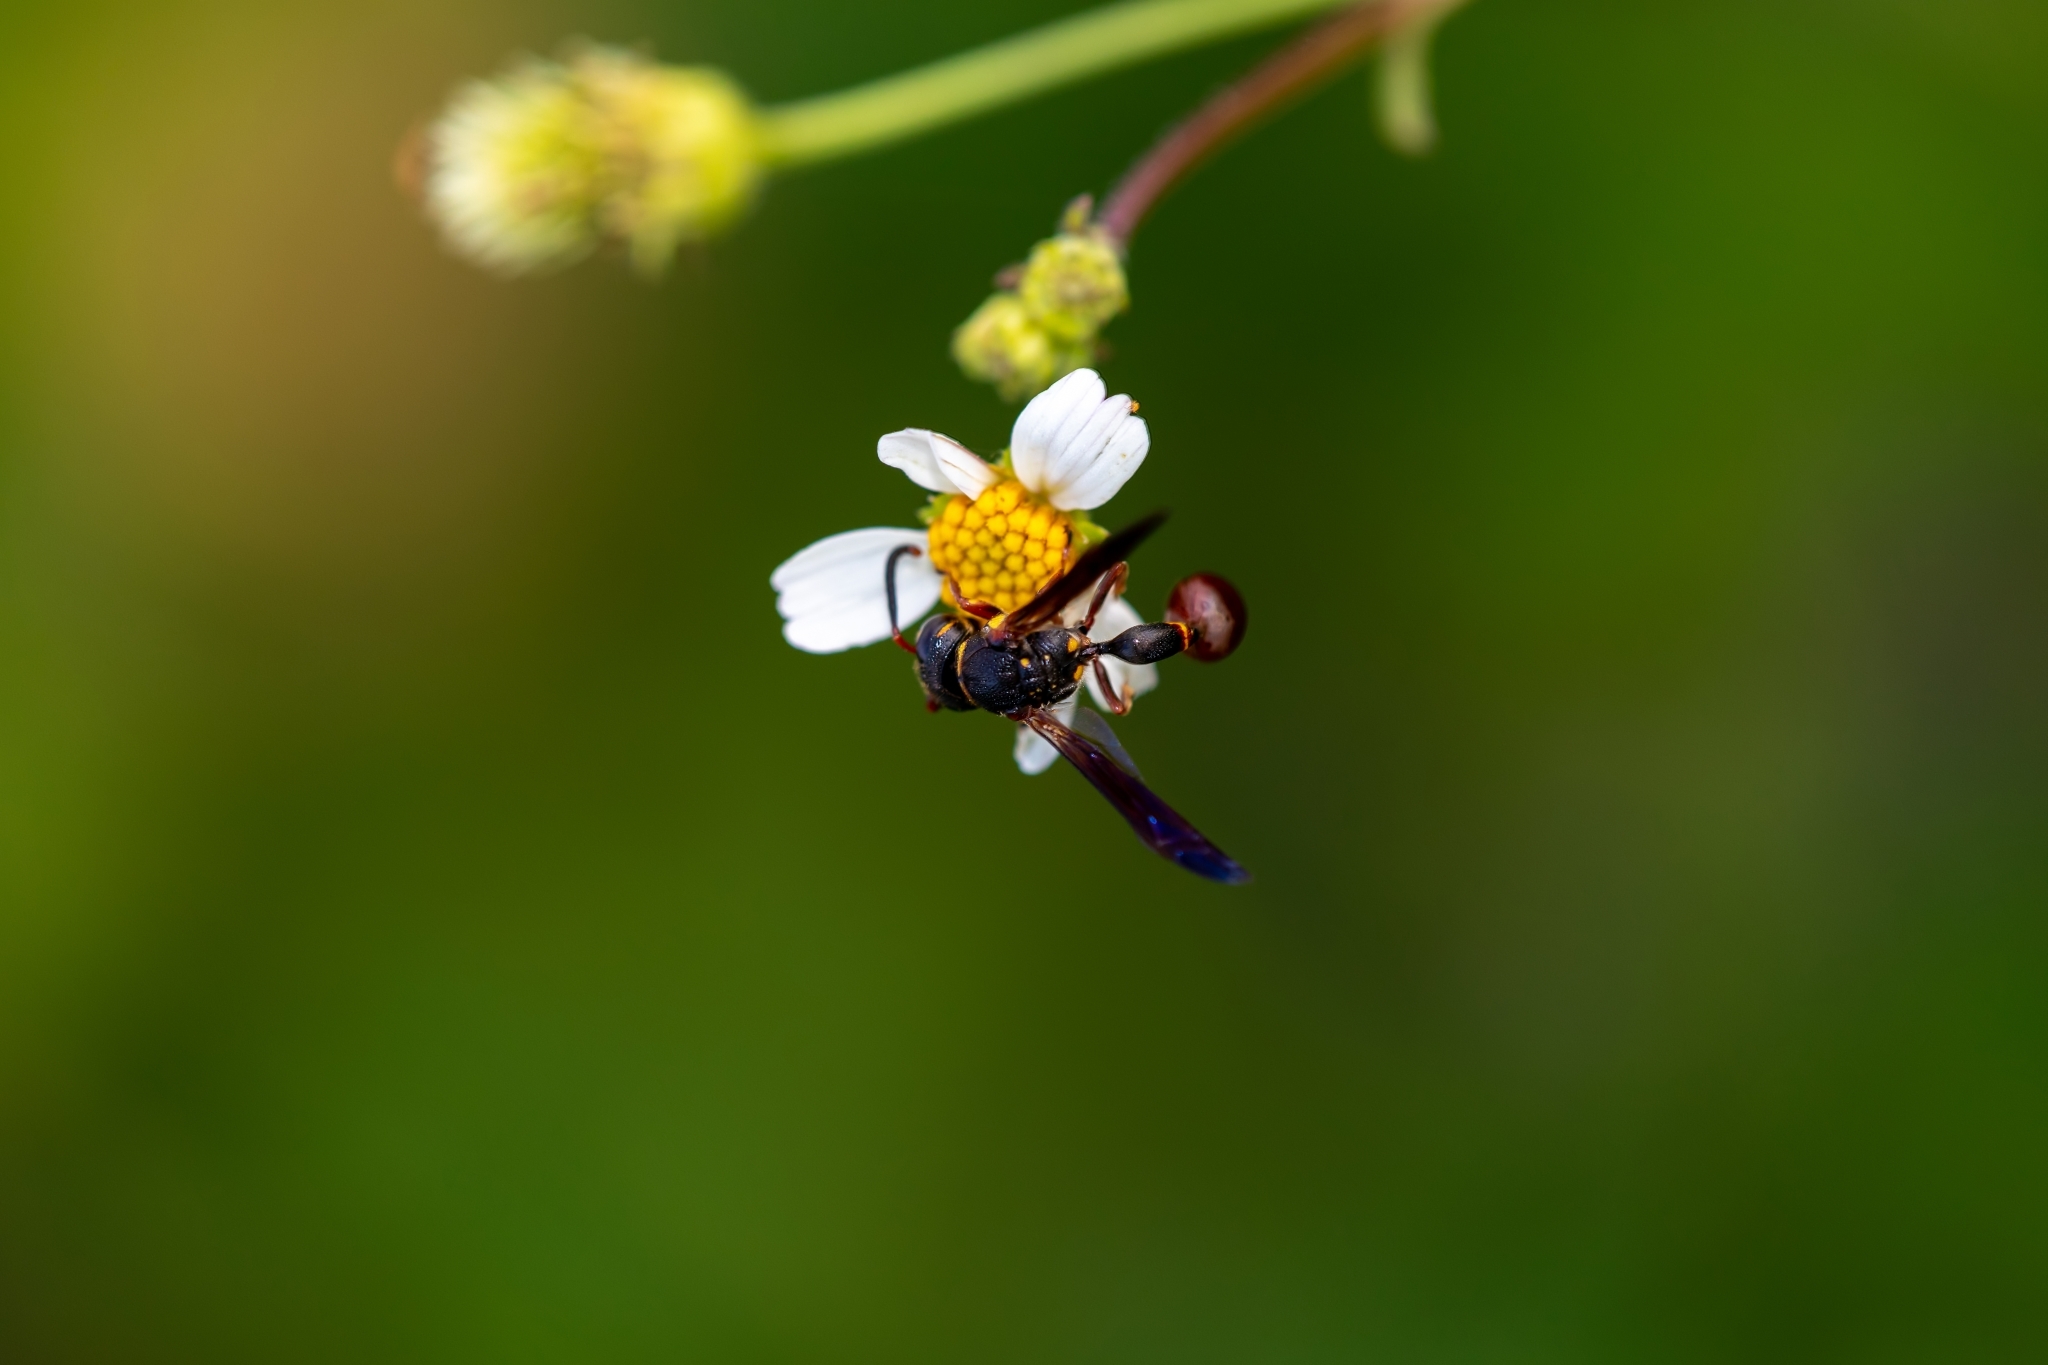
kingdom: Animalia
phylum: Arthropoda
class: Insecta
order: Hymenoptera
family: Eumenidae
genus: Zethus
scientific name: Zethus slossonae
